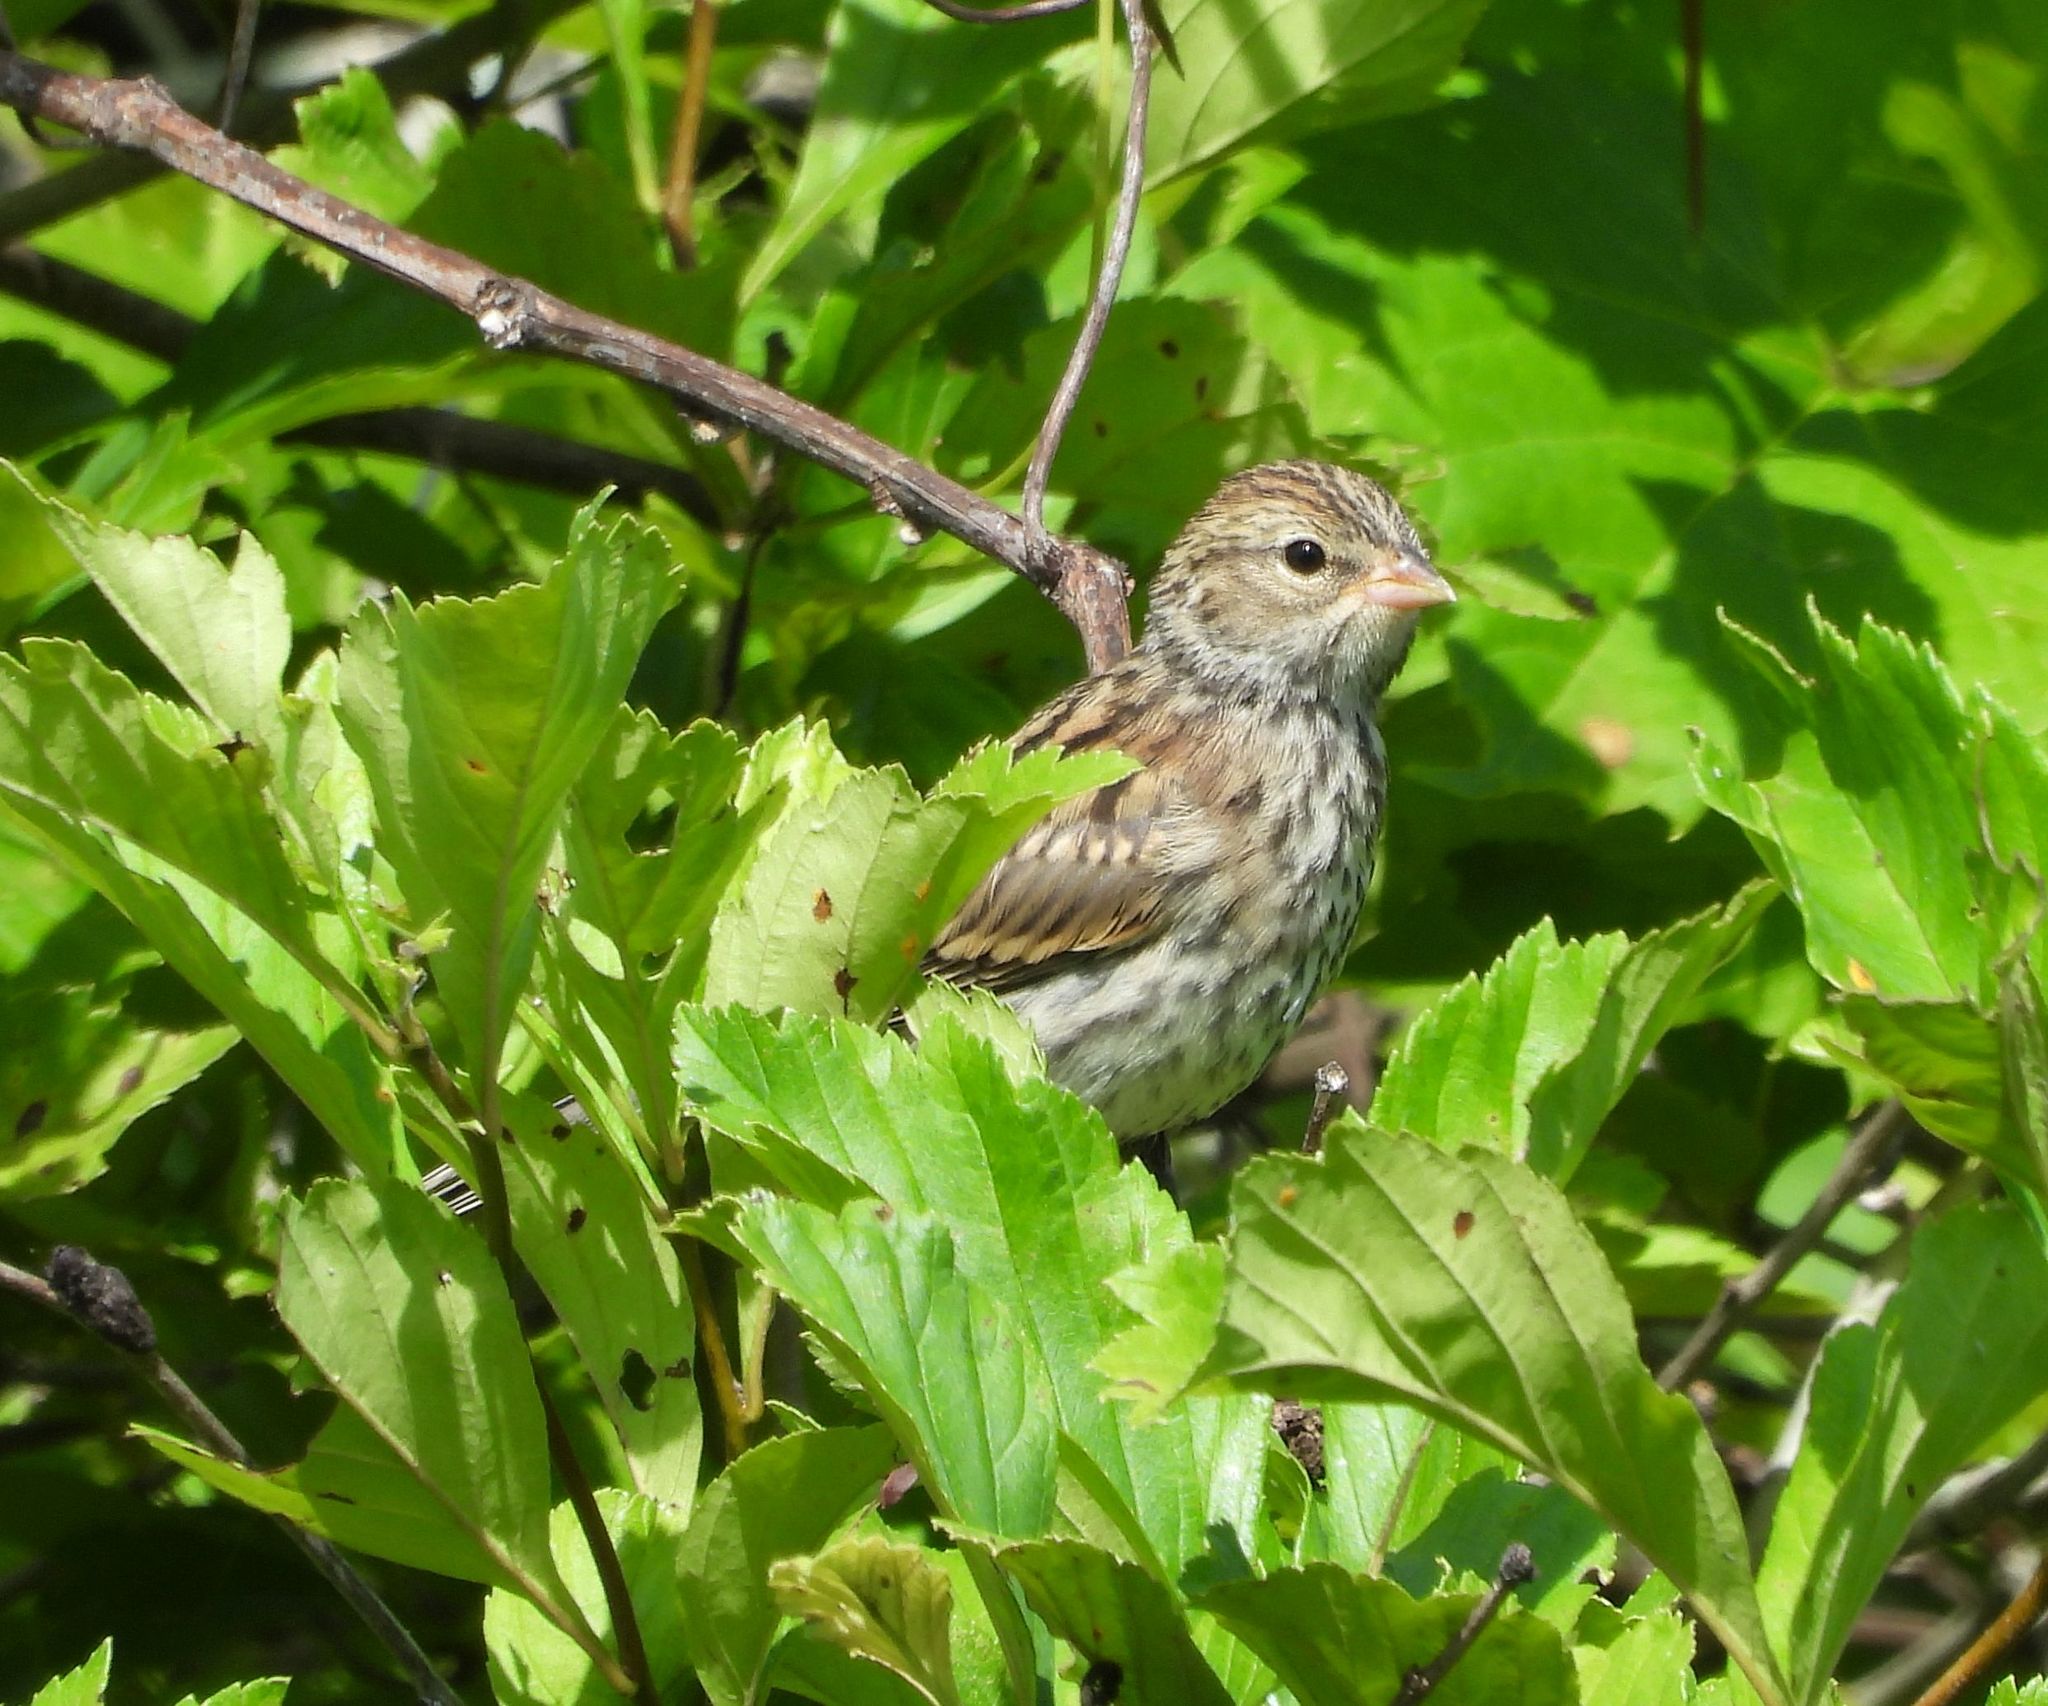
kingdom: Animalia
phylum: Chordata
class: Aves
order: Passeriformes
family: Passerellidae
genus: Spizella
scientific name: Spizella passerina
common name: Chipping sparrow
